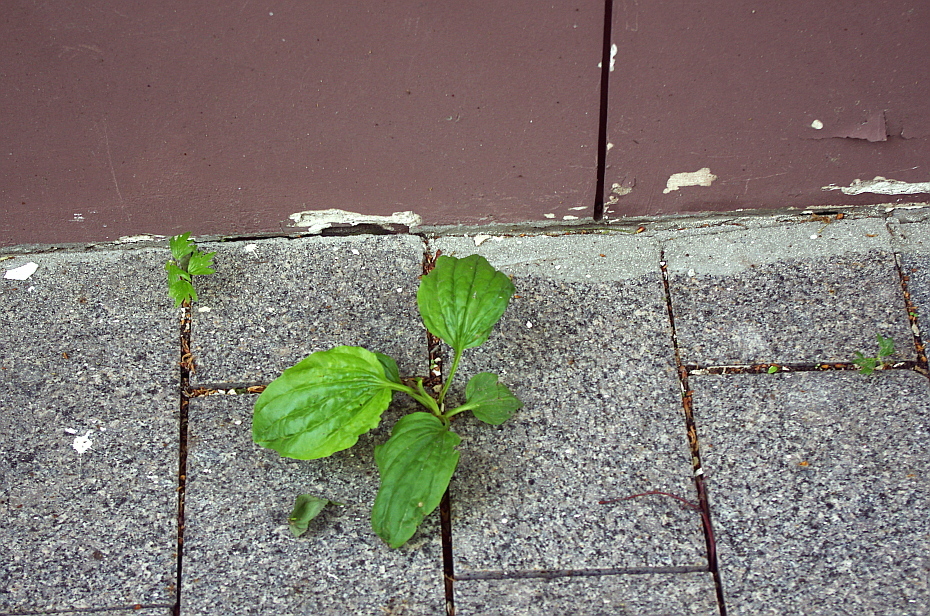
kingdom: Plantae
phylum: Tracheophyta
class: Magnoliopsida
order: Lamiales
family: Plantaginaceae
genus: Plantago
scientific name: Plantago major
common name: Common plantain
